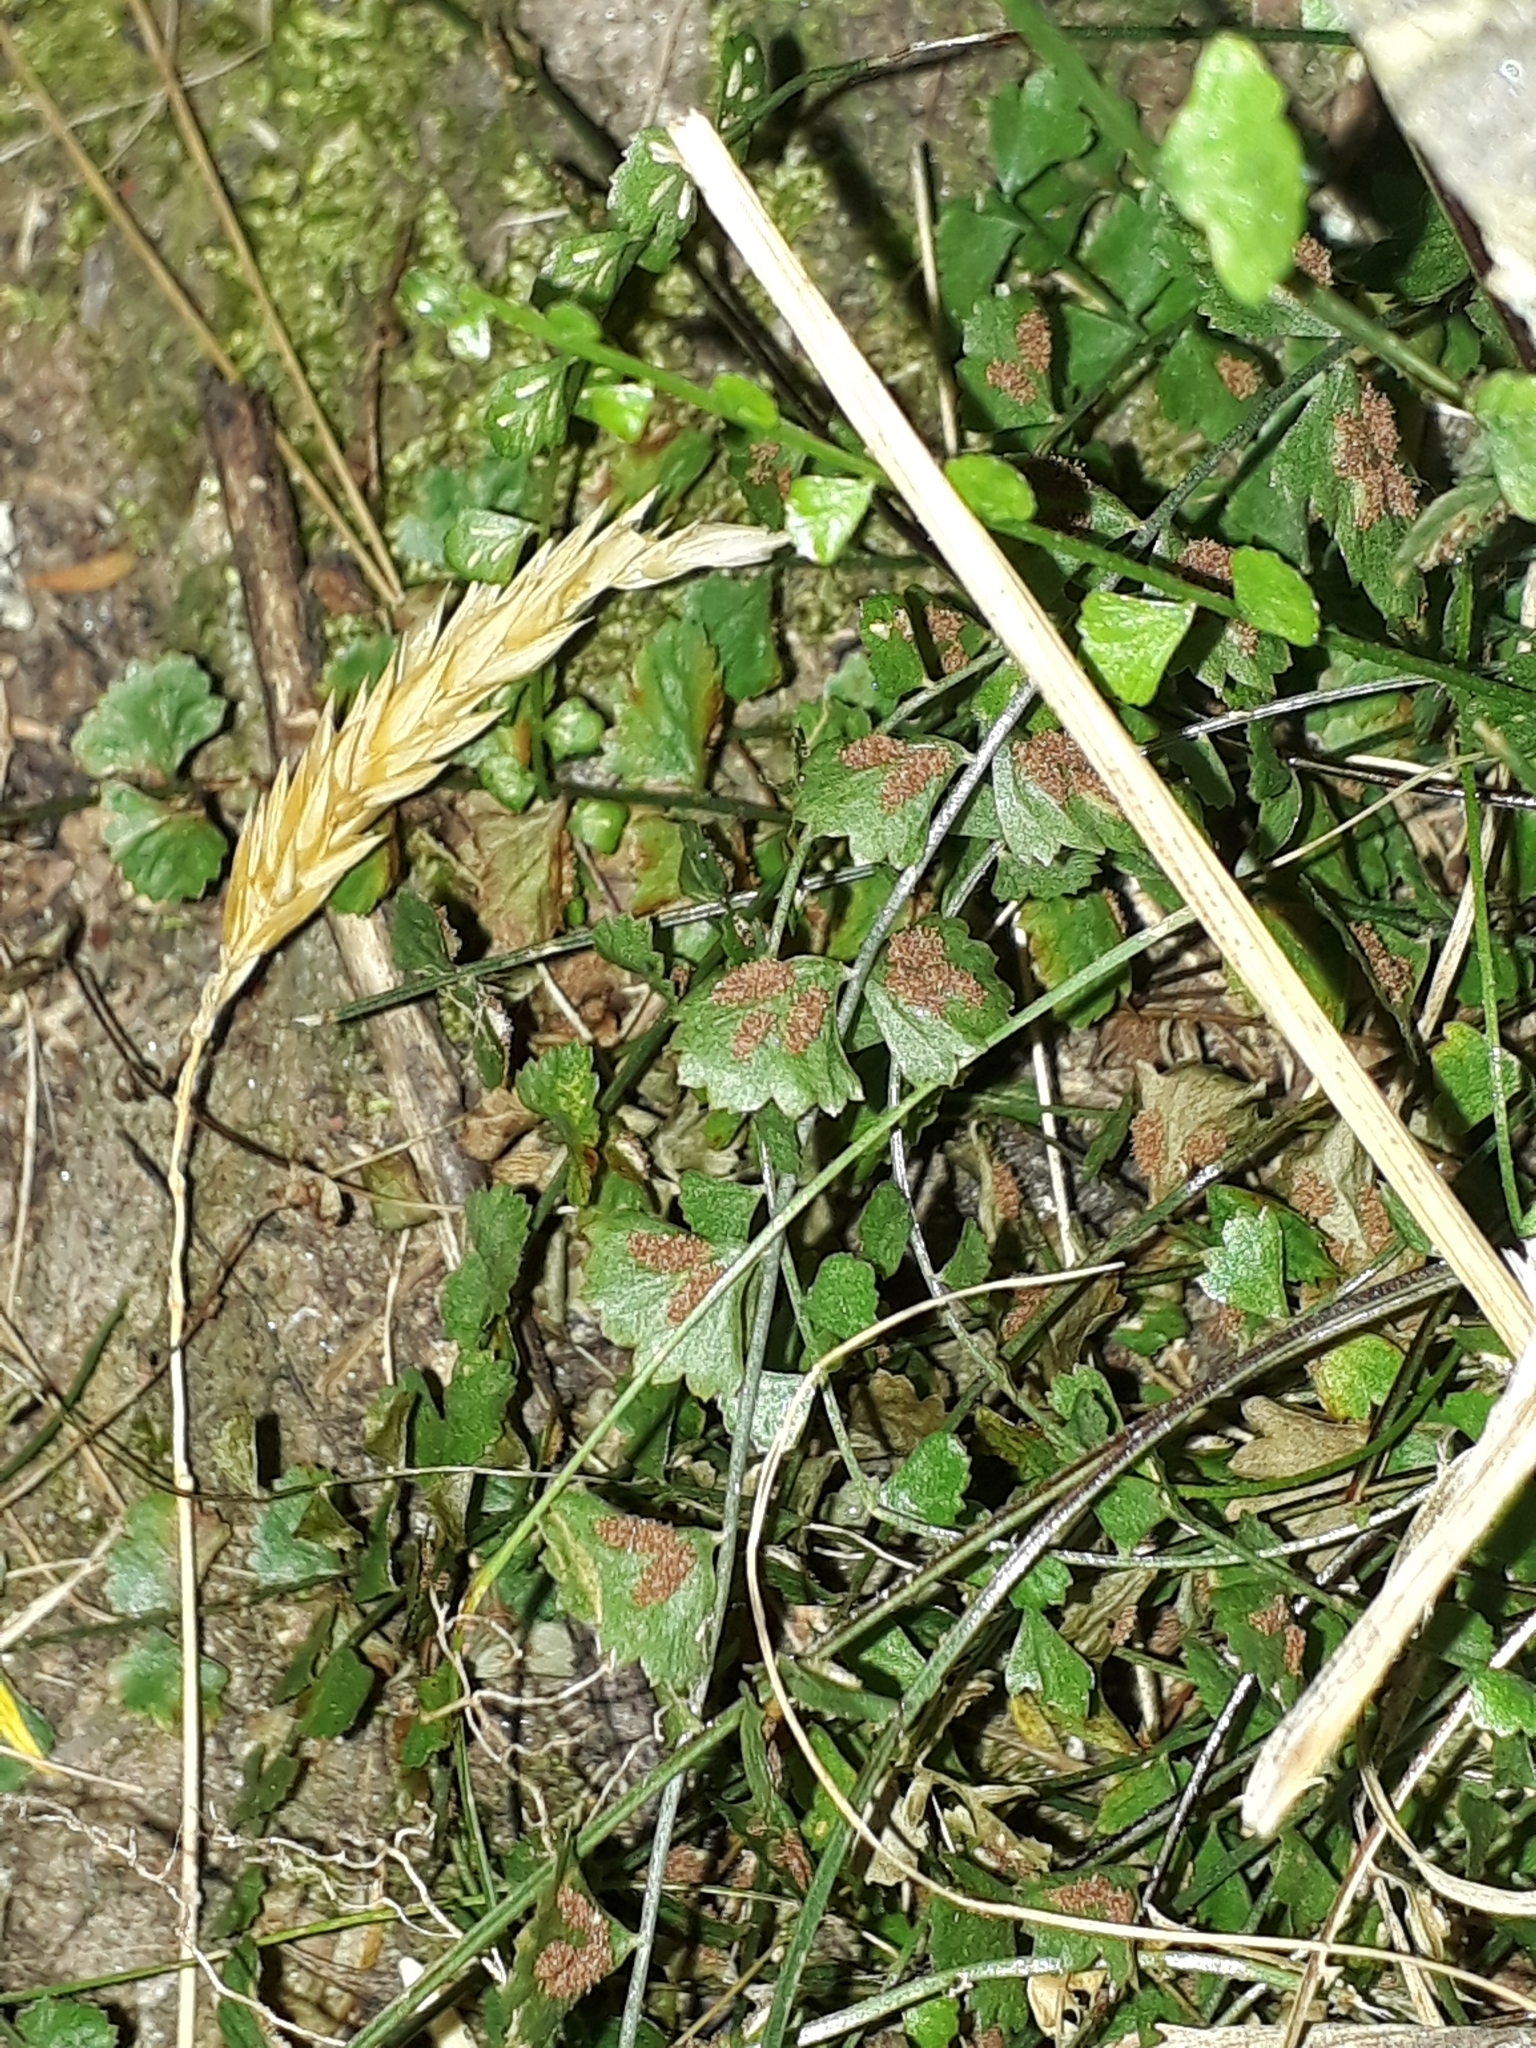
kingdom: Plantae
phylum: Tracheophyta
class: Polypodiopsida
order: Polypodiales
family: Aspleniaceae
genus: Asplenium
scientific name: Asplenium flabellifolium
